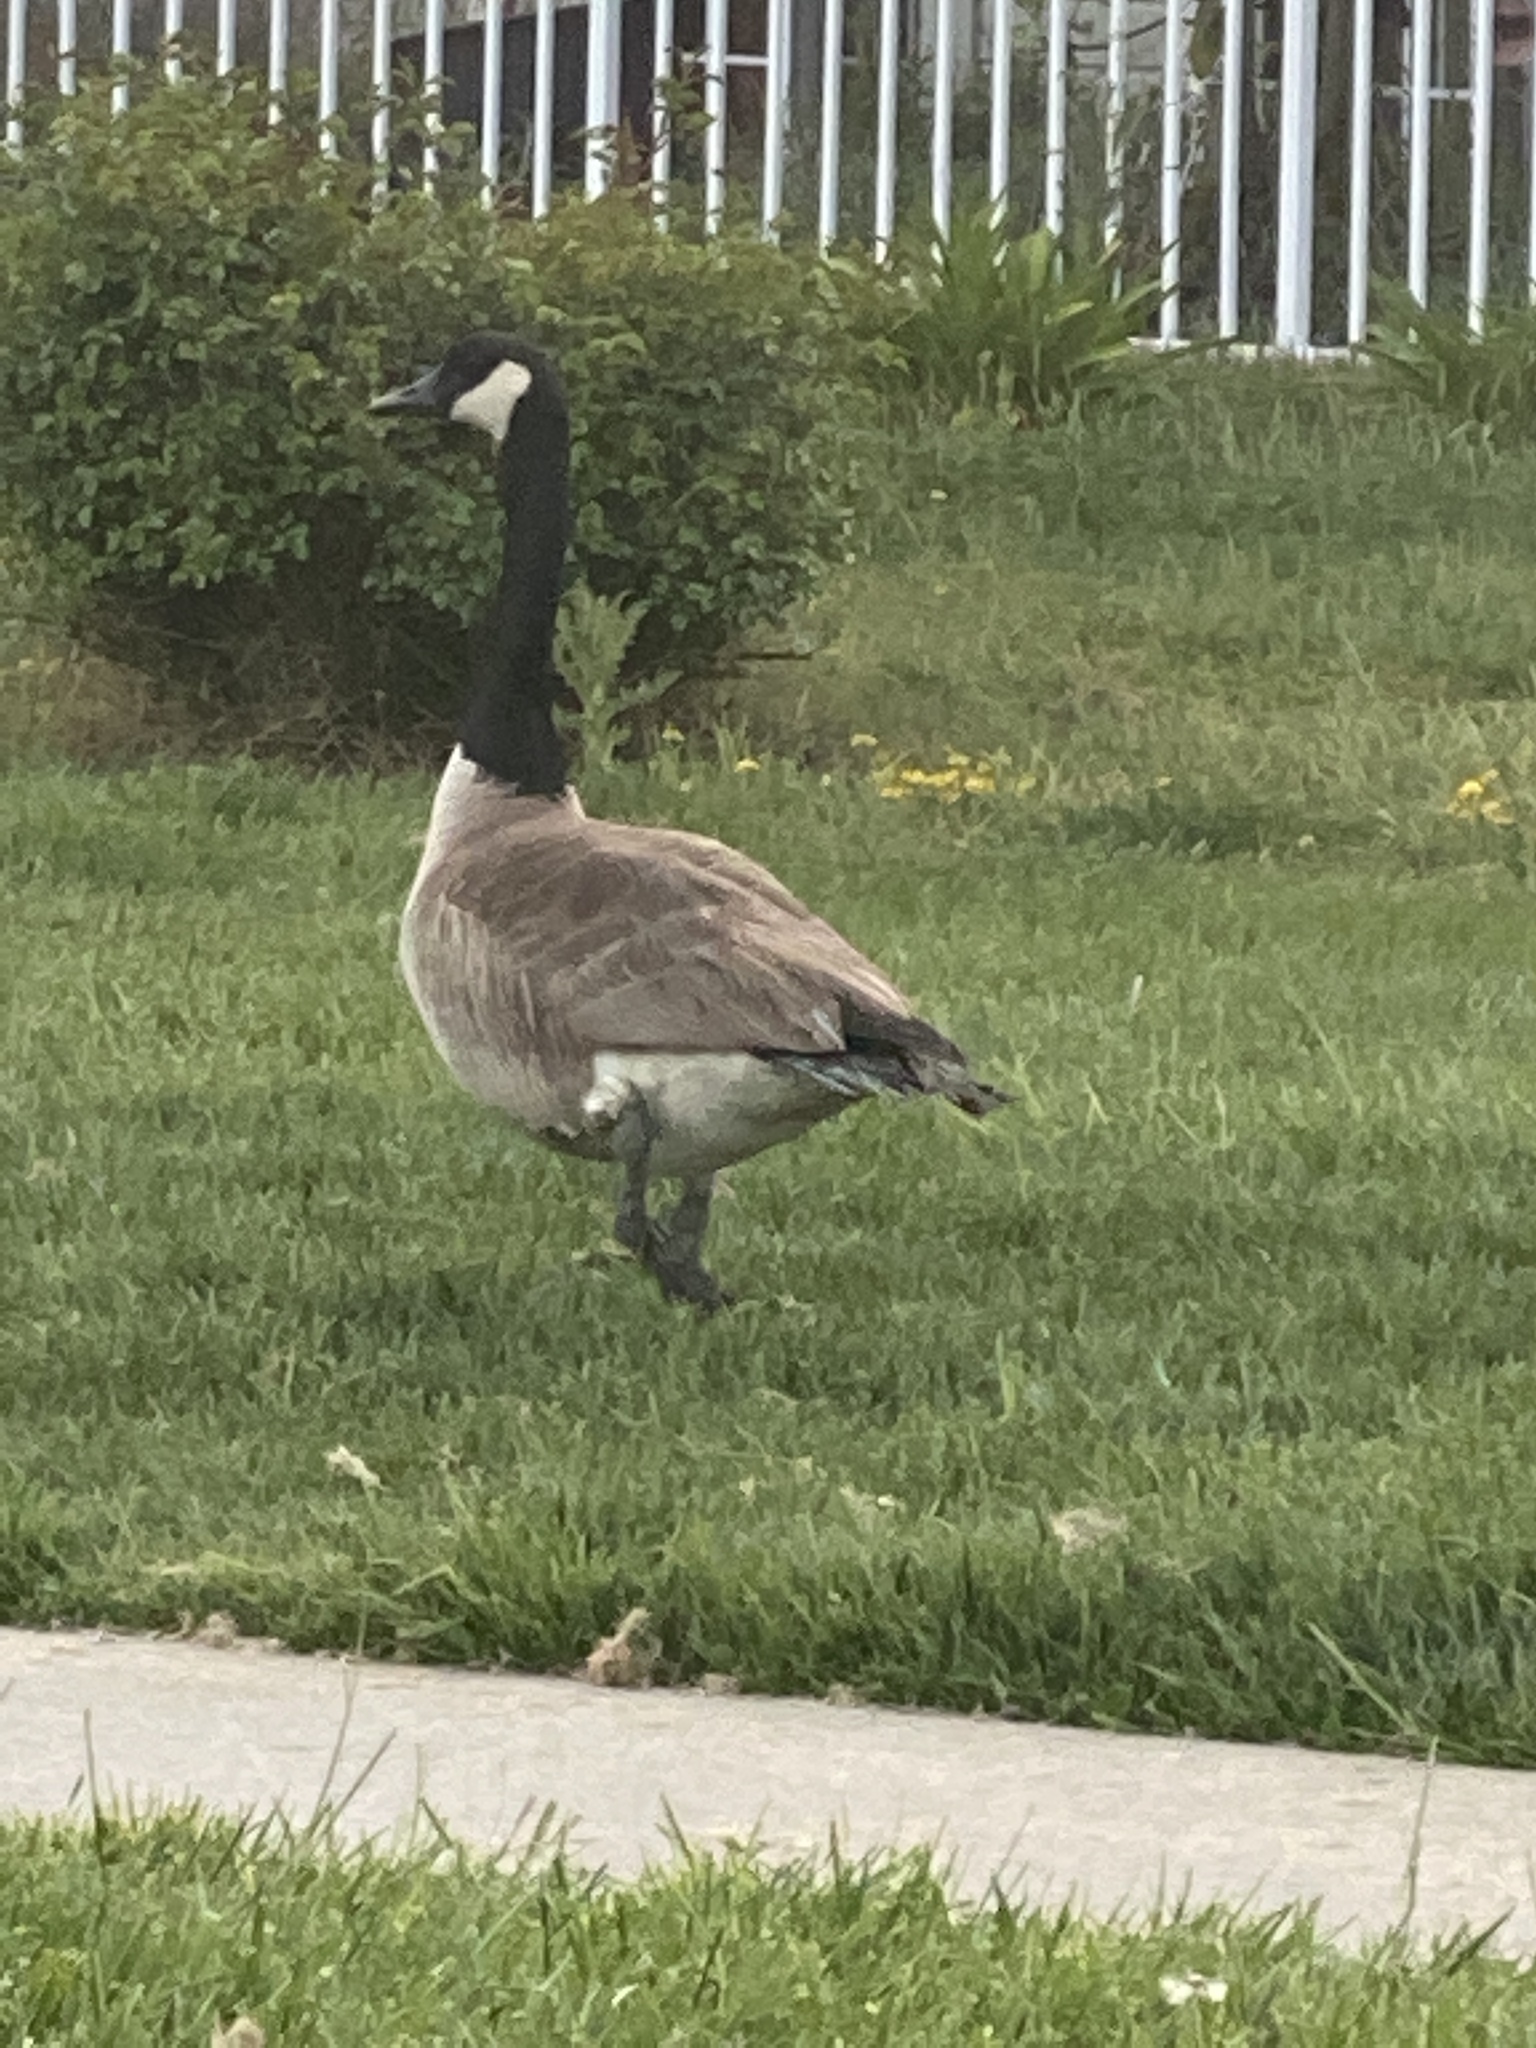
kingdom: Animalia
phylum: Chordata
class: Aves
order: Anseriformes
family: Anatidae
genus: Branta
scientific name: Branta canadensis
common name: Canada goose
